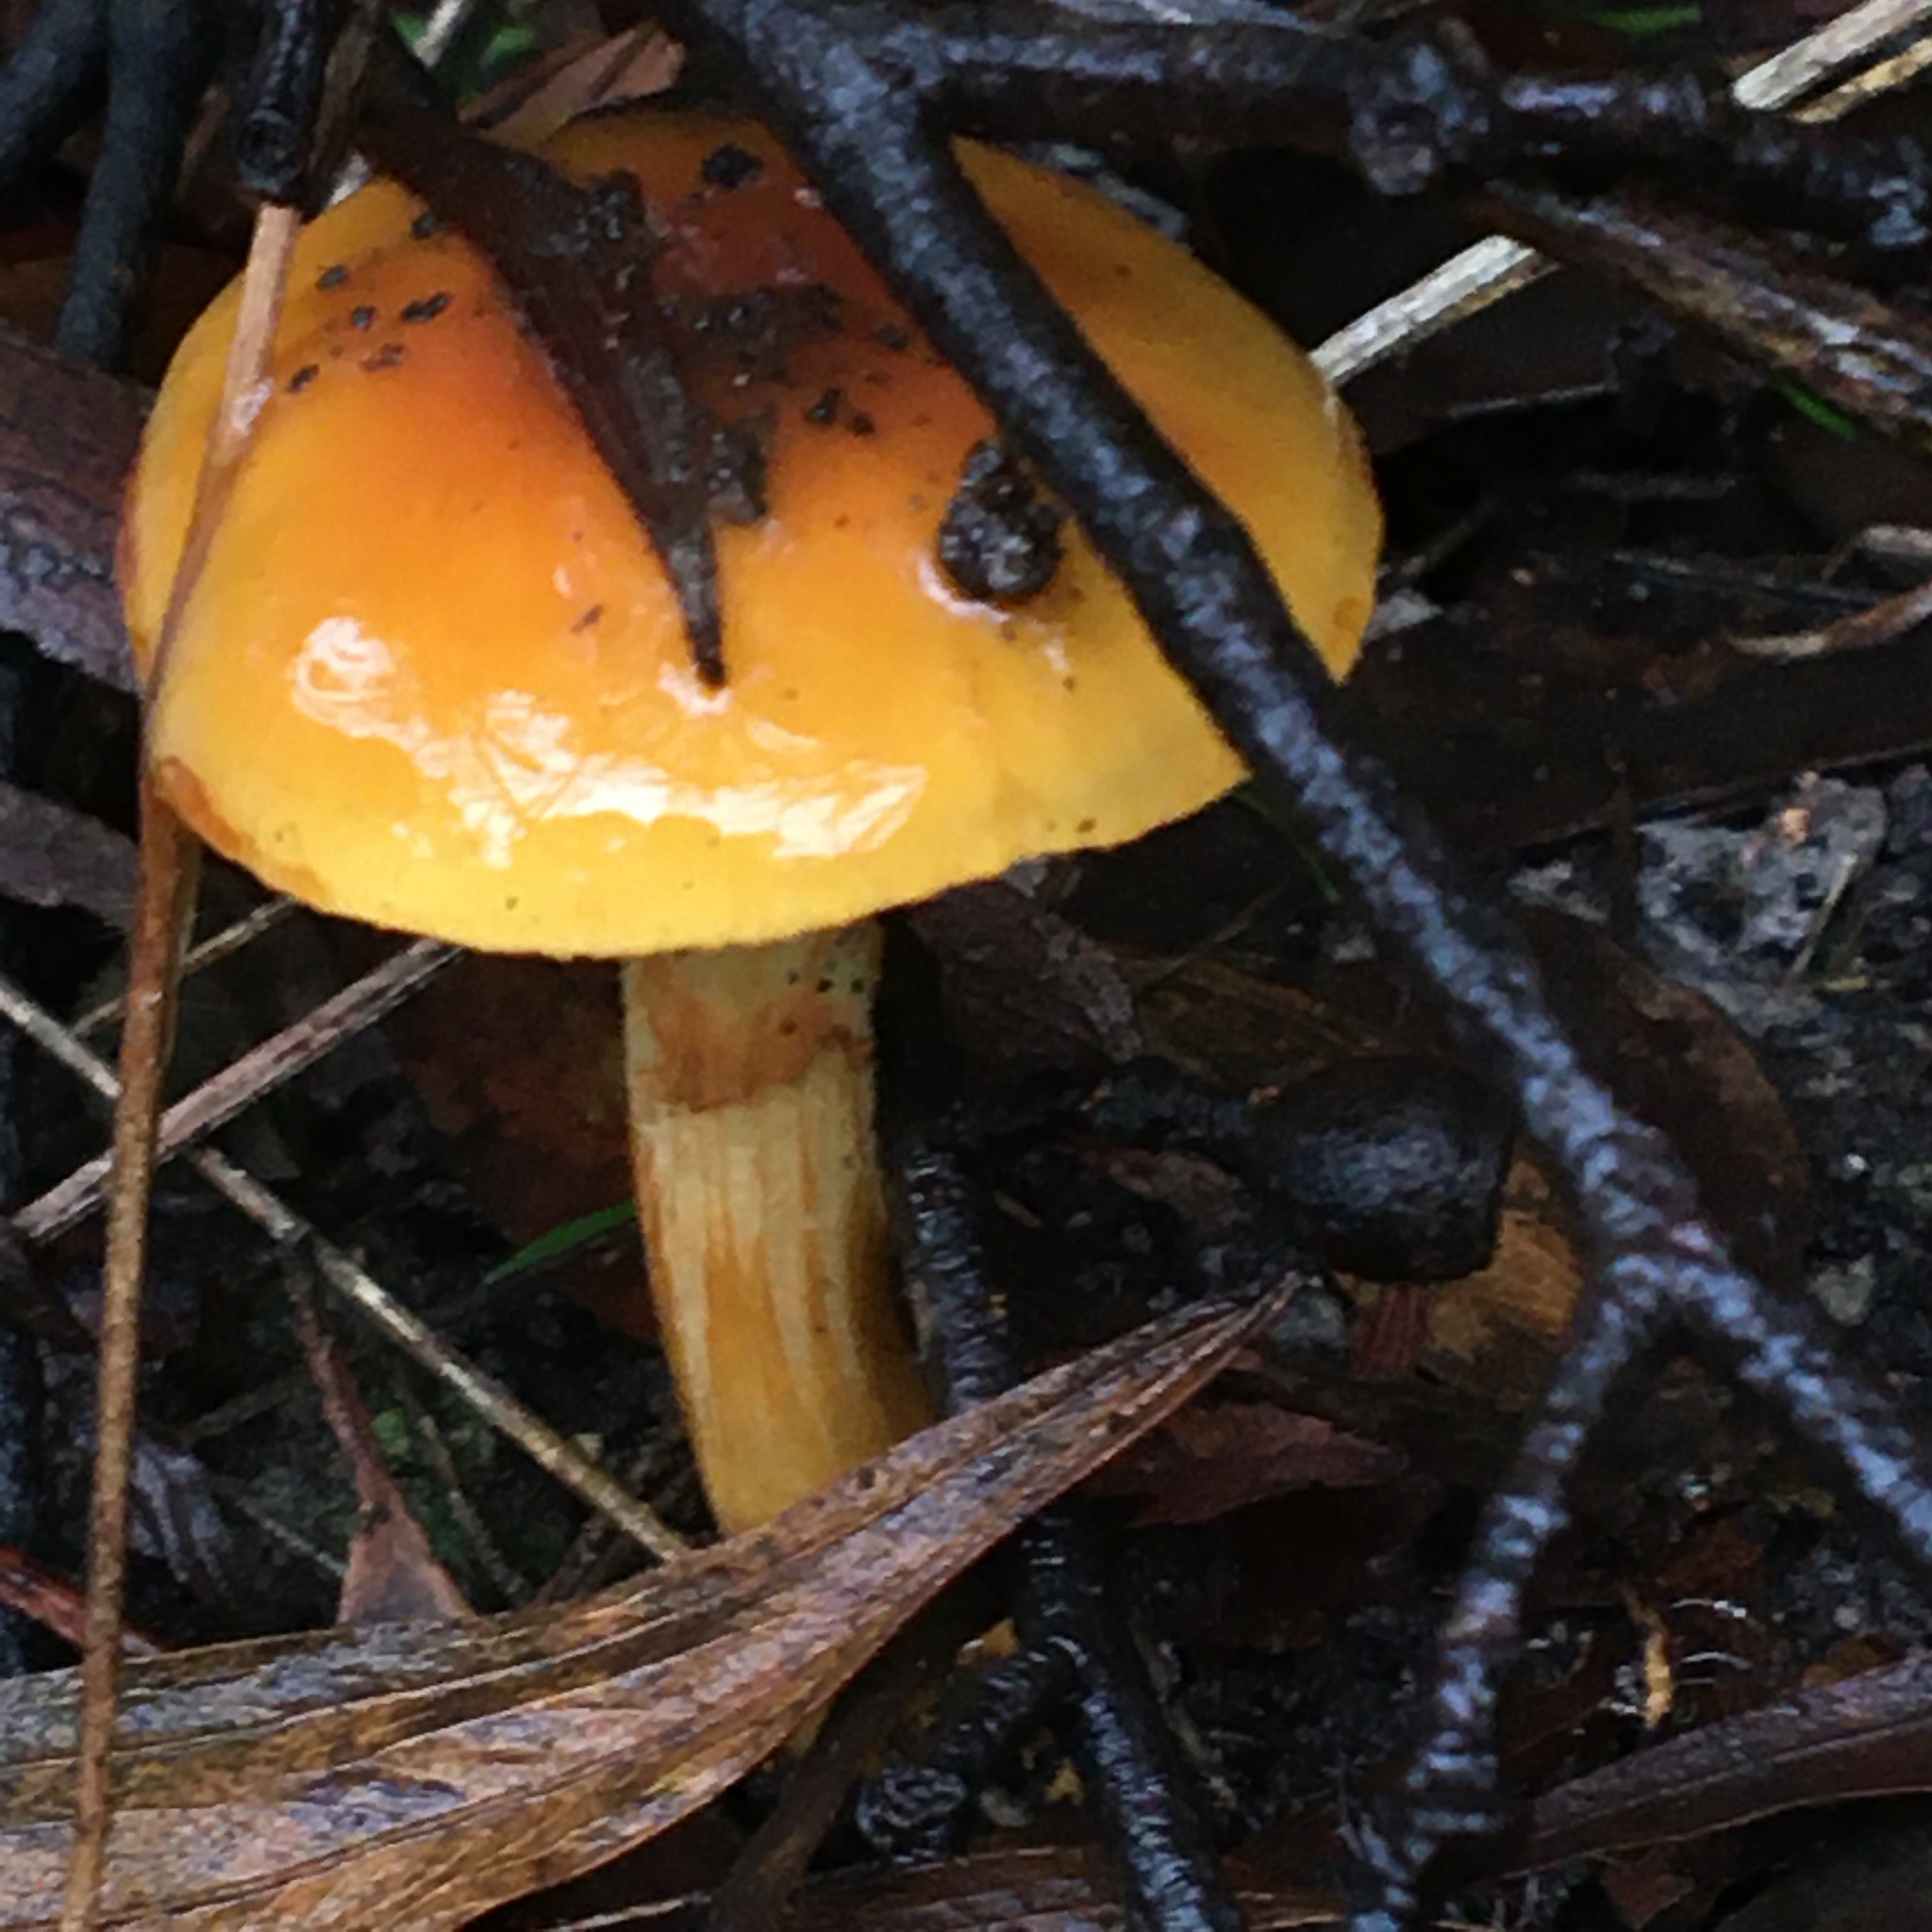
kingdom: Fungi
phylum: Basidiomycota
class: Agaricomycetes
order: Agaricales
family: Cortinariaceae
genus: Cortinarius
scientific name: Cortinarius sinapicolor
